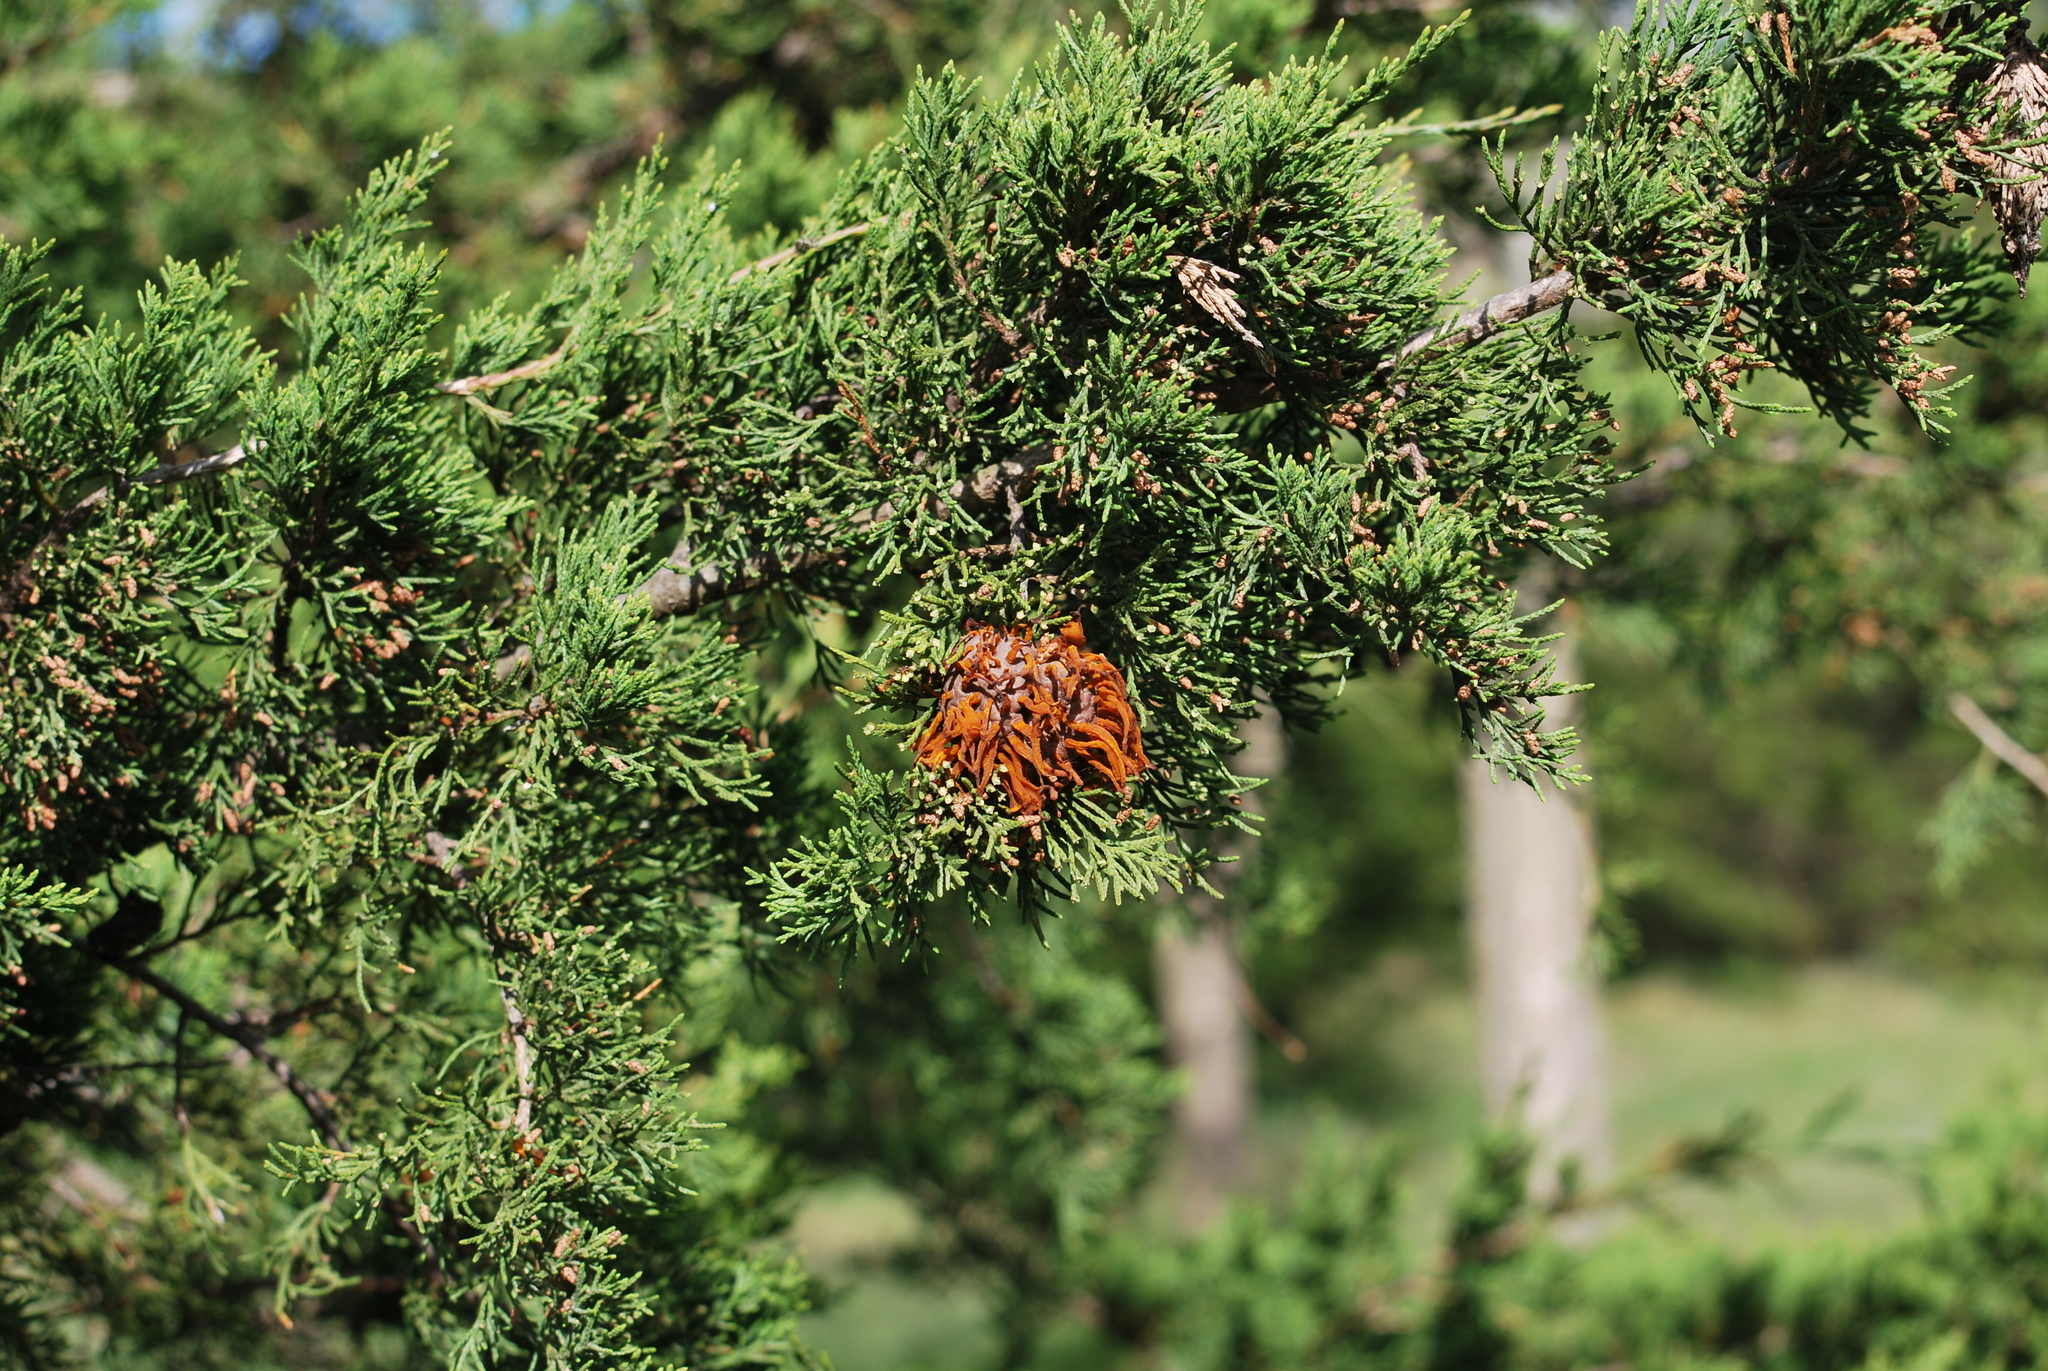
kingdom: Fungi
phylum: Basidiomycota
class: Pucciniomycetes
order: Pucciniales
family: Gymnosporangiaceae
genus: Gymnosporangium
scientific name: Gymnosporangium juniperi-virginianae
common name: Juniper-apple rust
